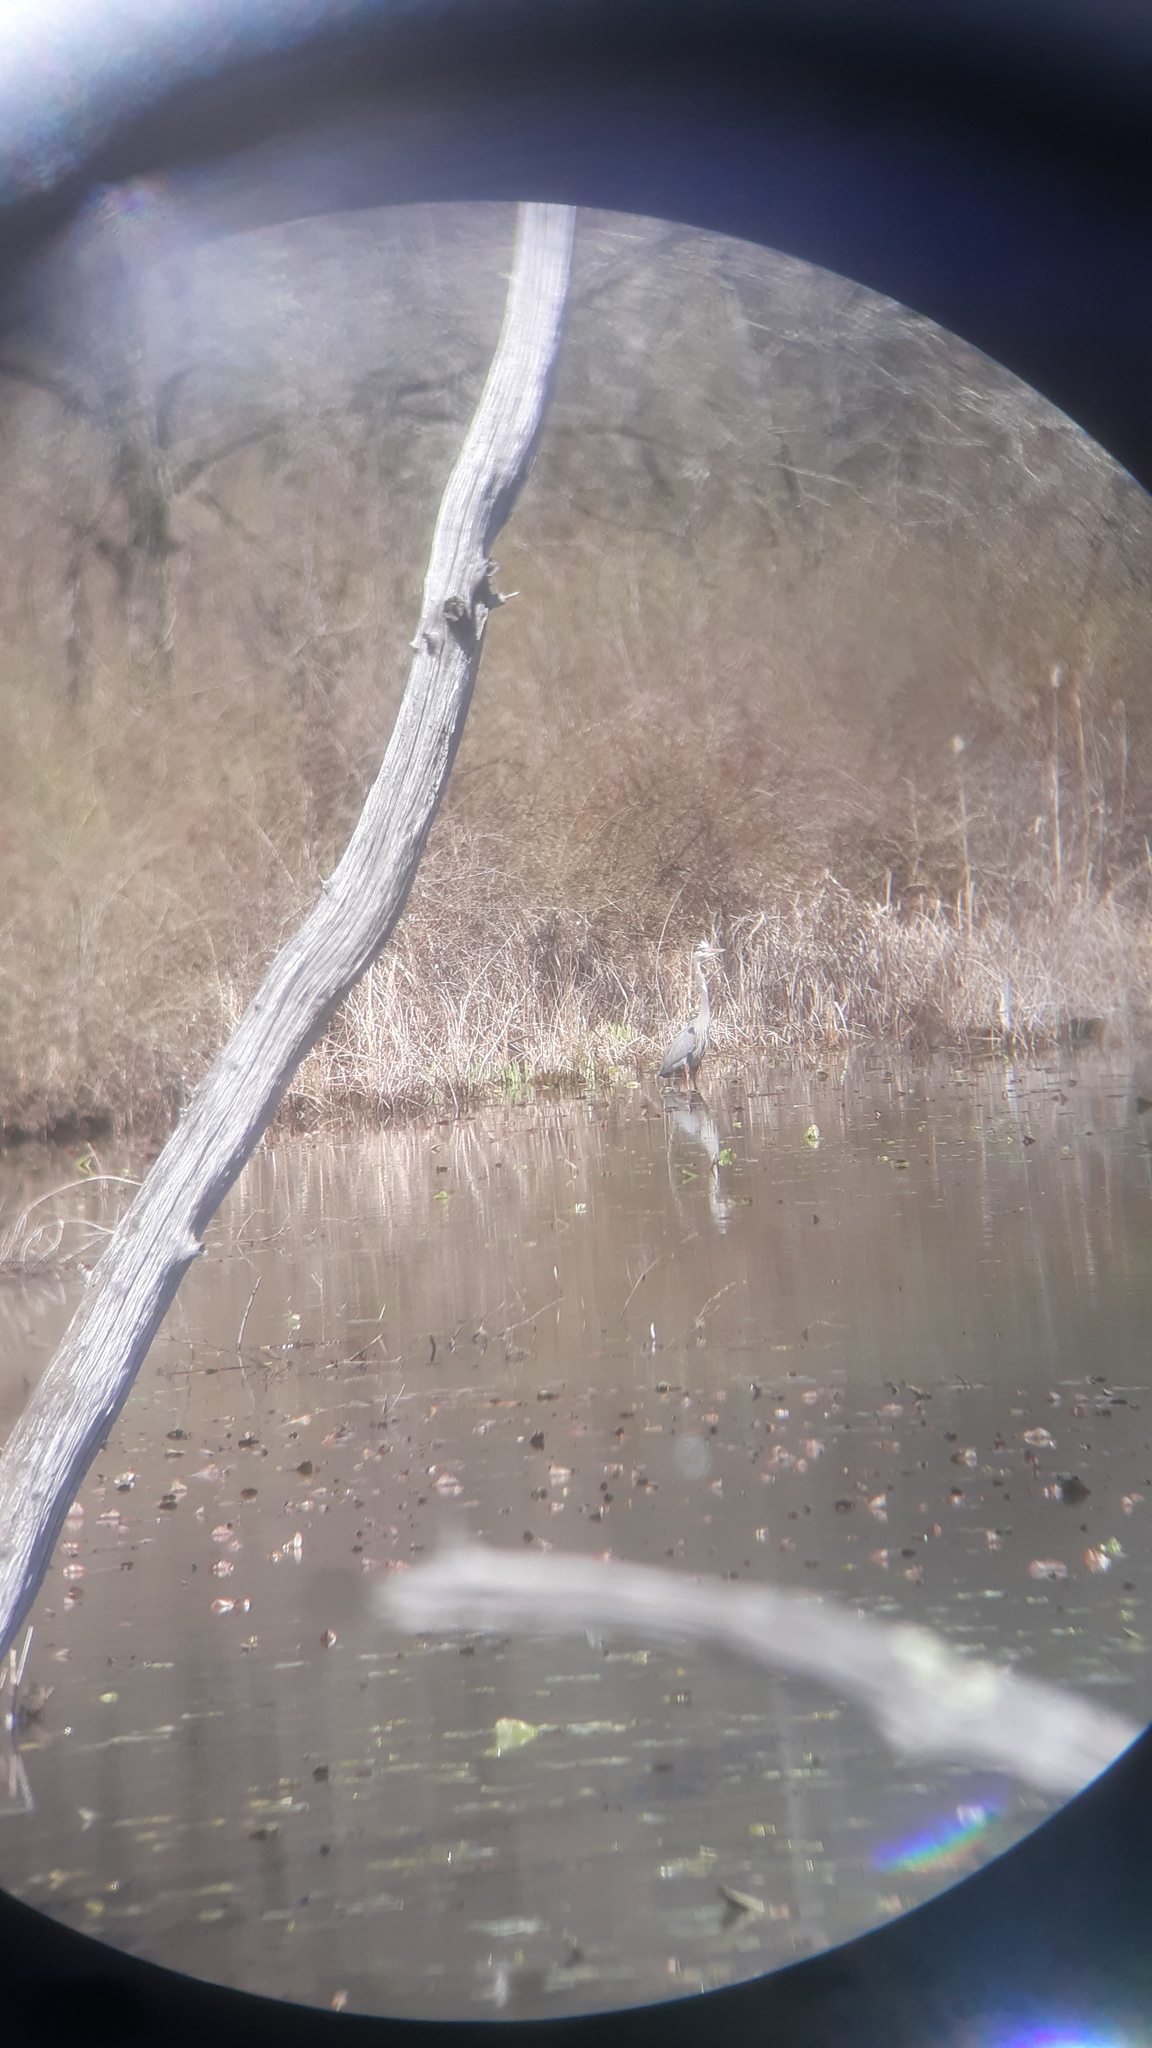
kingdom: Animalia
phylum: Chordata
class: Aves
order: Pelecaniformes
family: Ardeidae
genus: Ardea
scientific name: Ardea herodias
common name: Great blue heron
